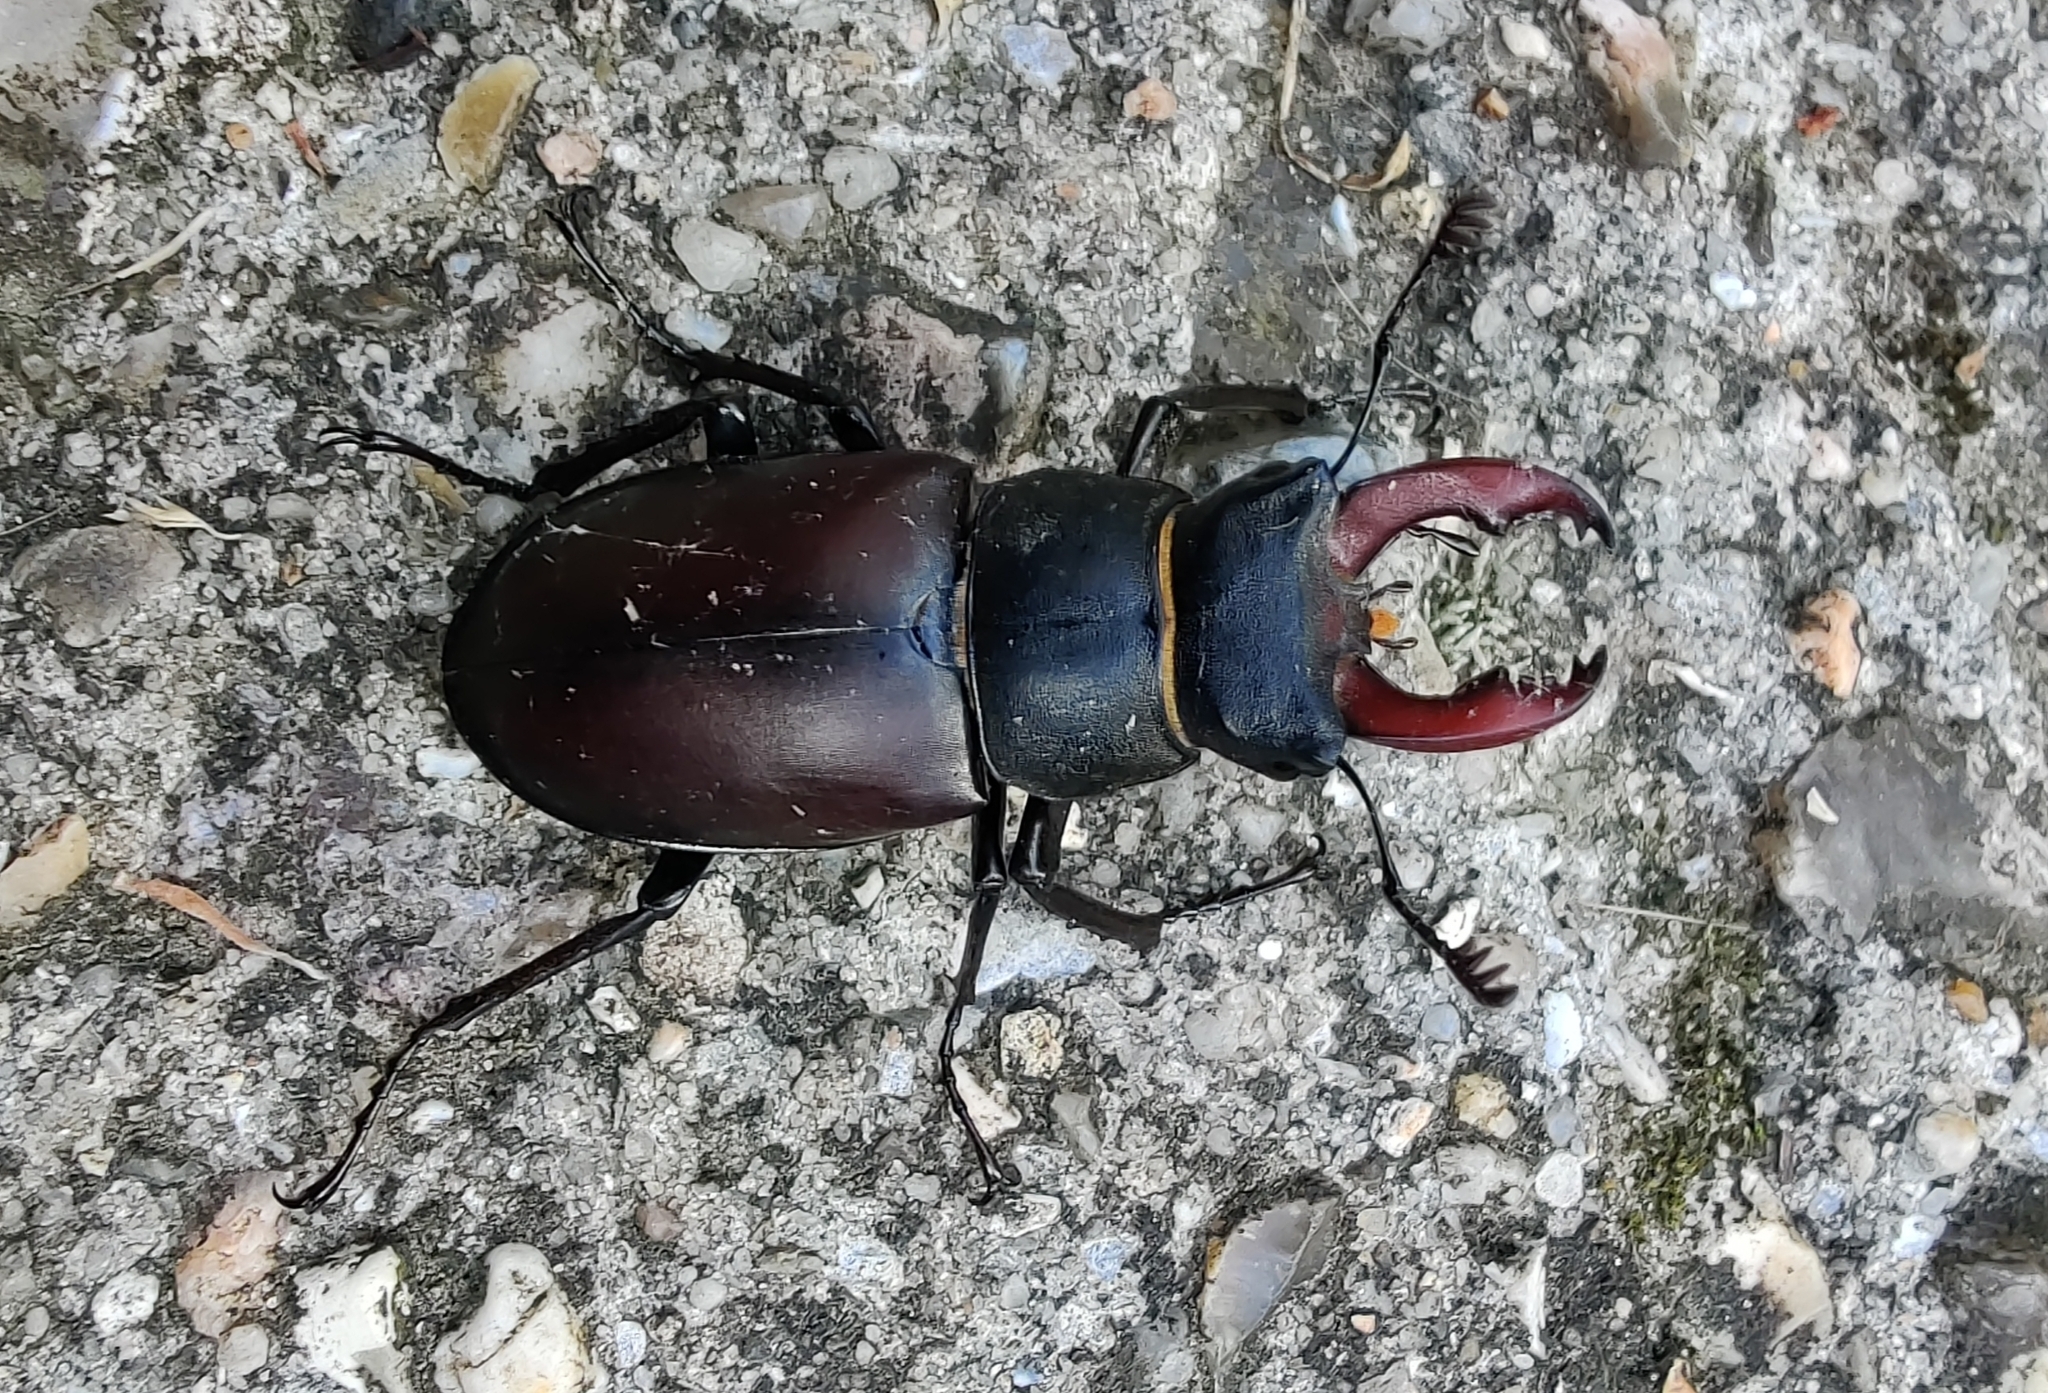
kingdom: Animalia
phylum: Arthropoda
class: Insecta
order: Coleoptera
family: Lucanidae
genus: Lucanus
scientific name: Lucanus cervus
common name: Stag beetle
